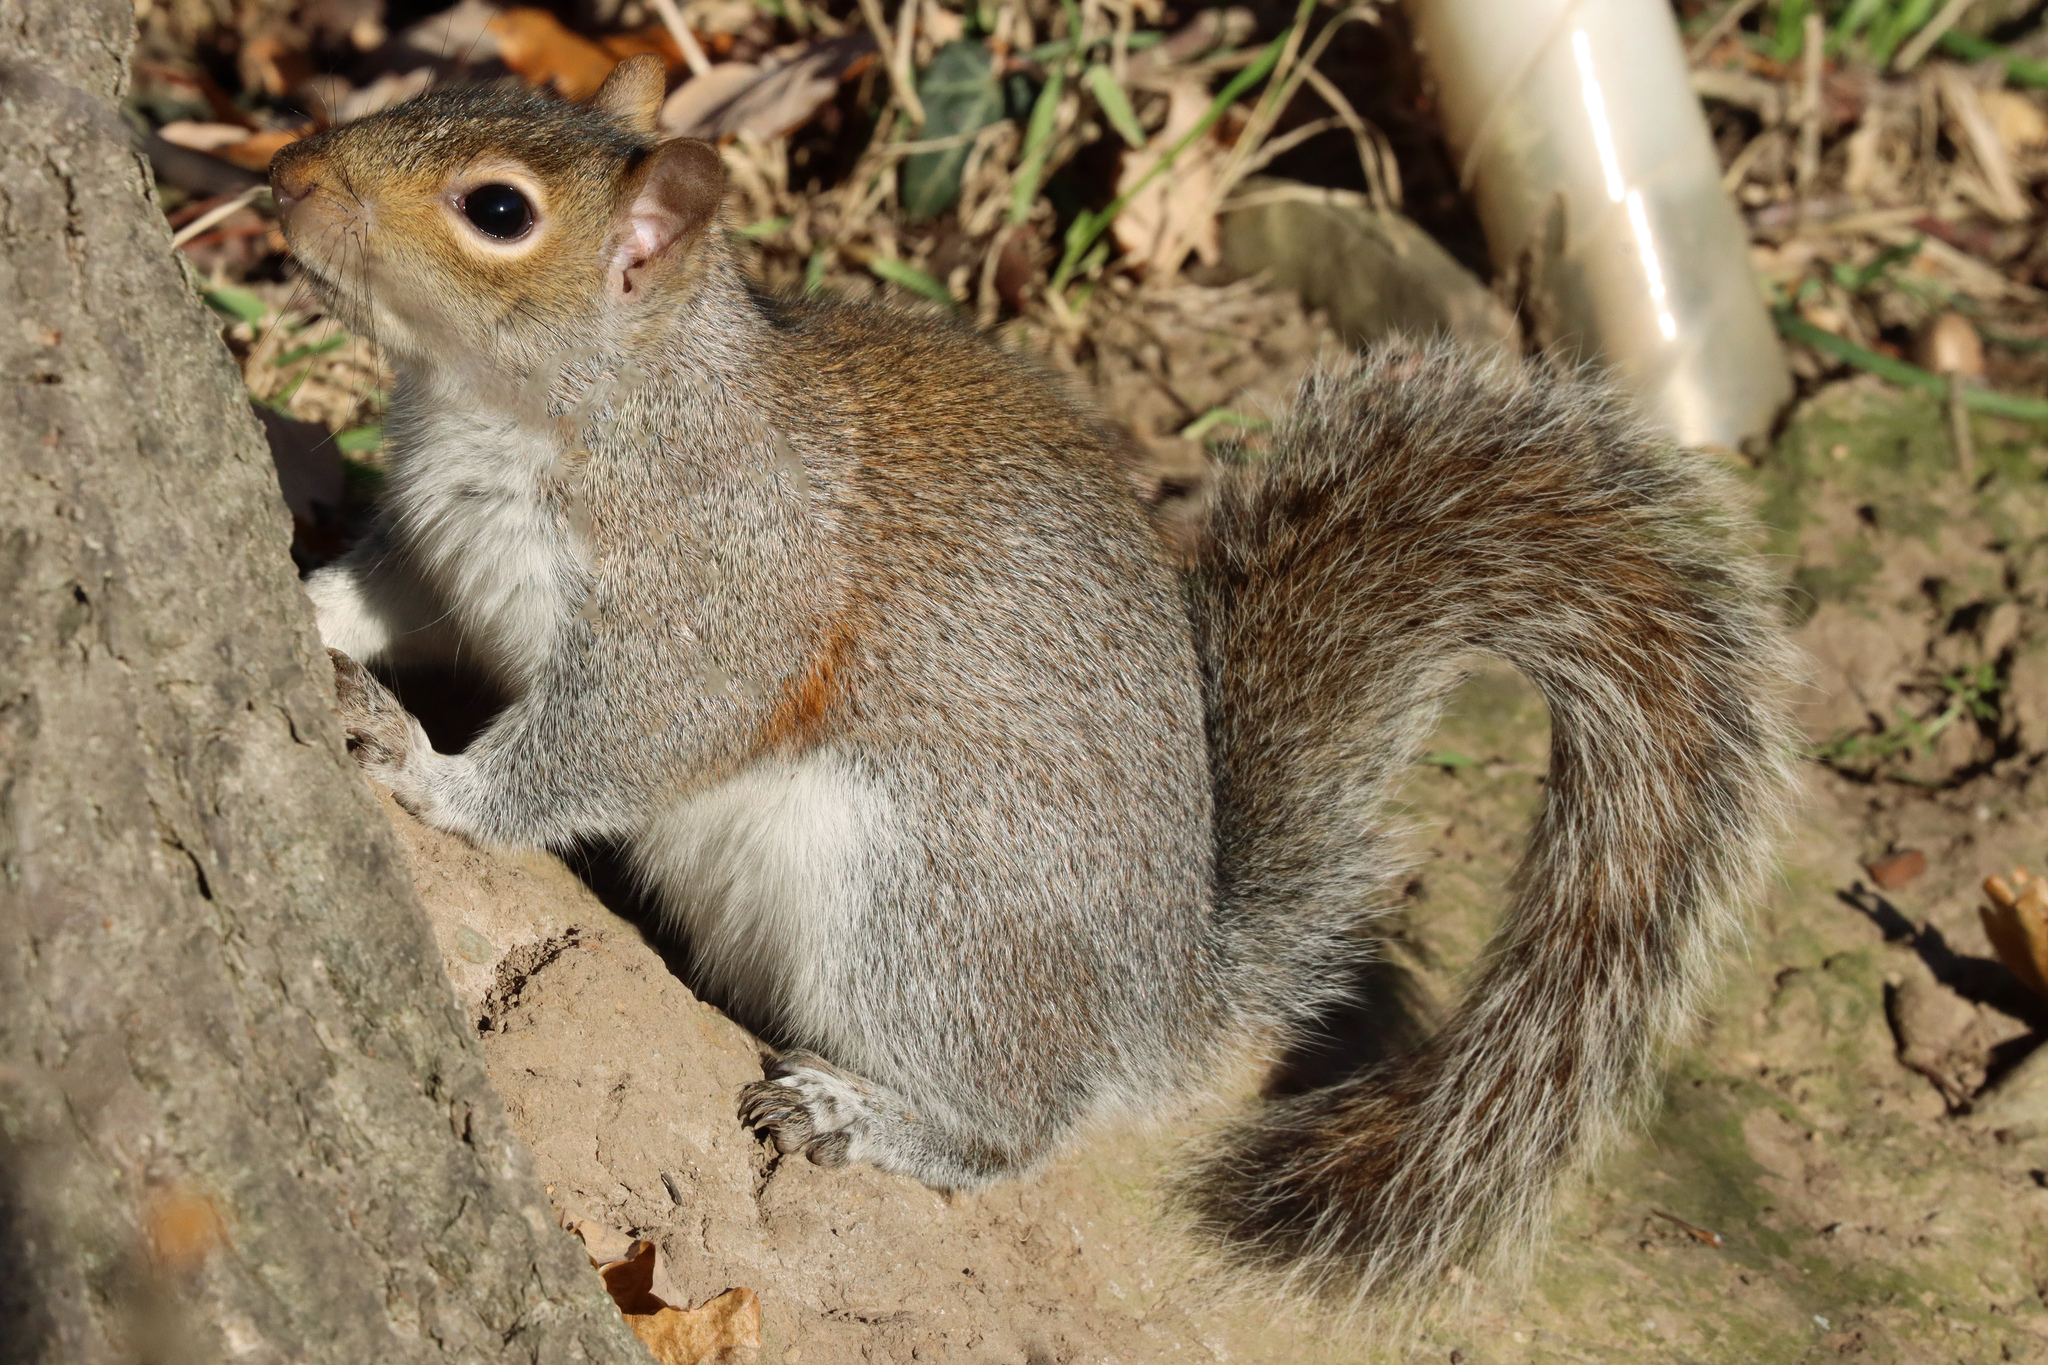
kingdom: Animalia
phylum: Chordata
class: Mammalia
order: Rodentia
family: Sciuridae
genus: Sciurus
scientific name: Sciurus carolinensis
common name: Eastern gray squirrel
